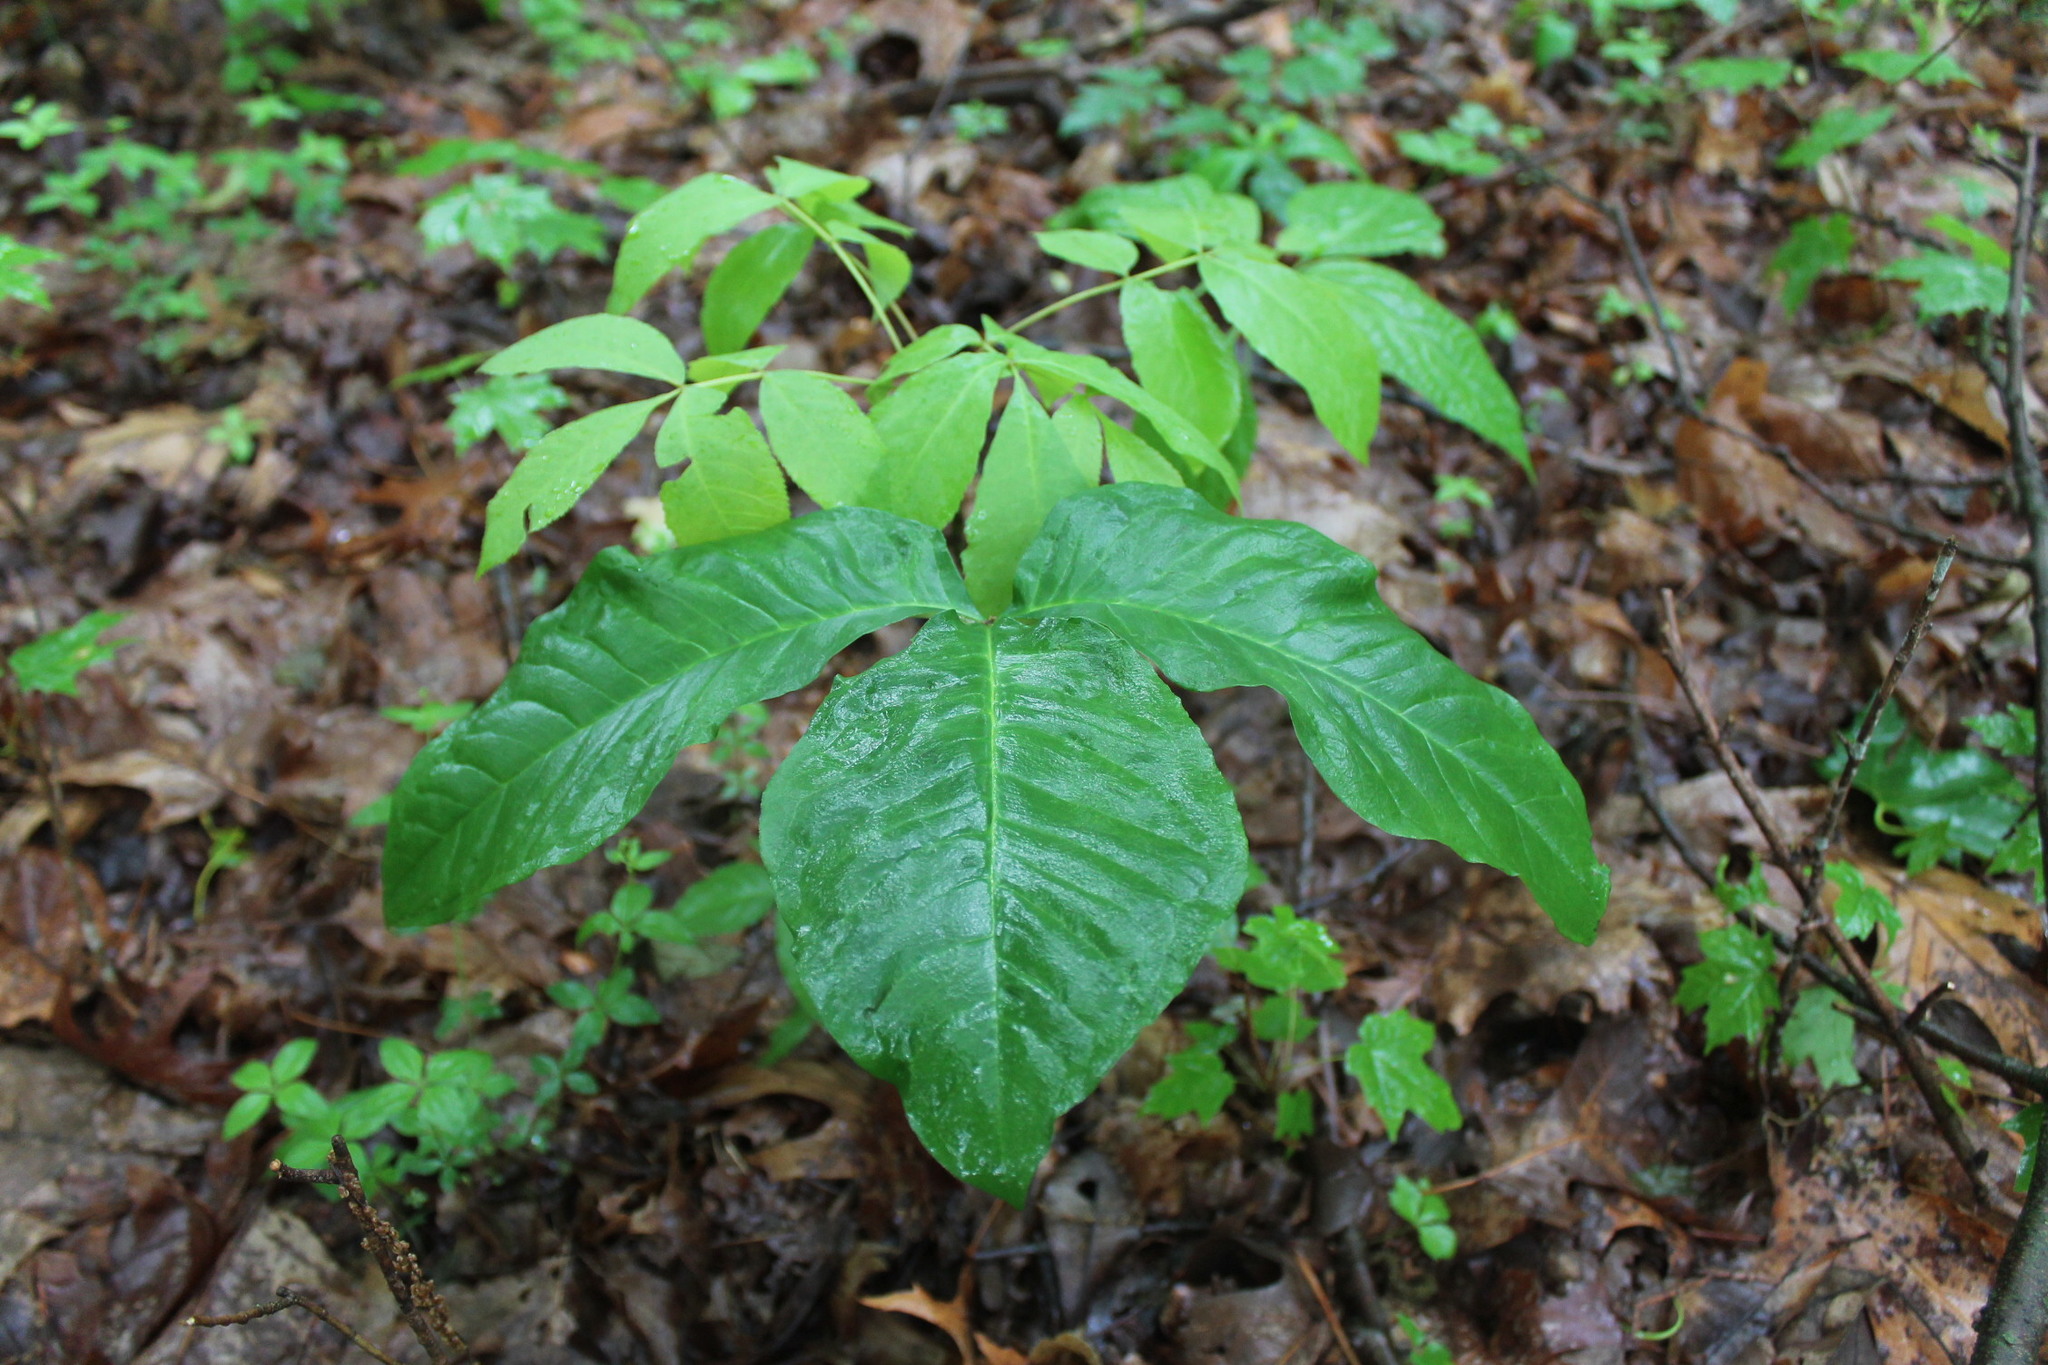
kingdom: Plantae
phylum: Tracheophyta
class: Liliopsida
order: Alismatales
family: Araceae
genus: Arisaema
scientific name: Arisaema triphyllum
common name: Jack-in-the-pulpit
